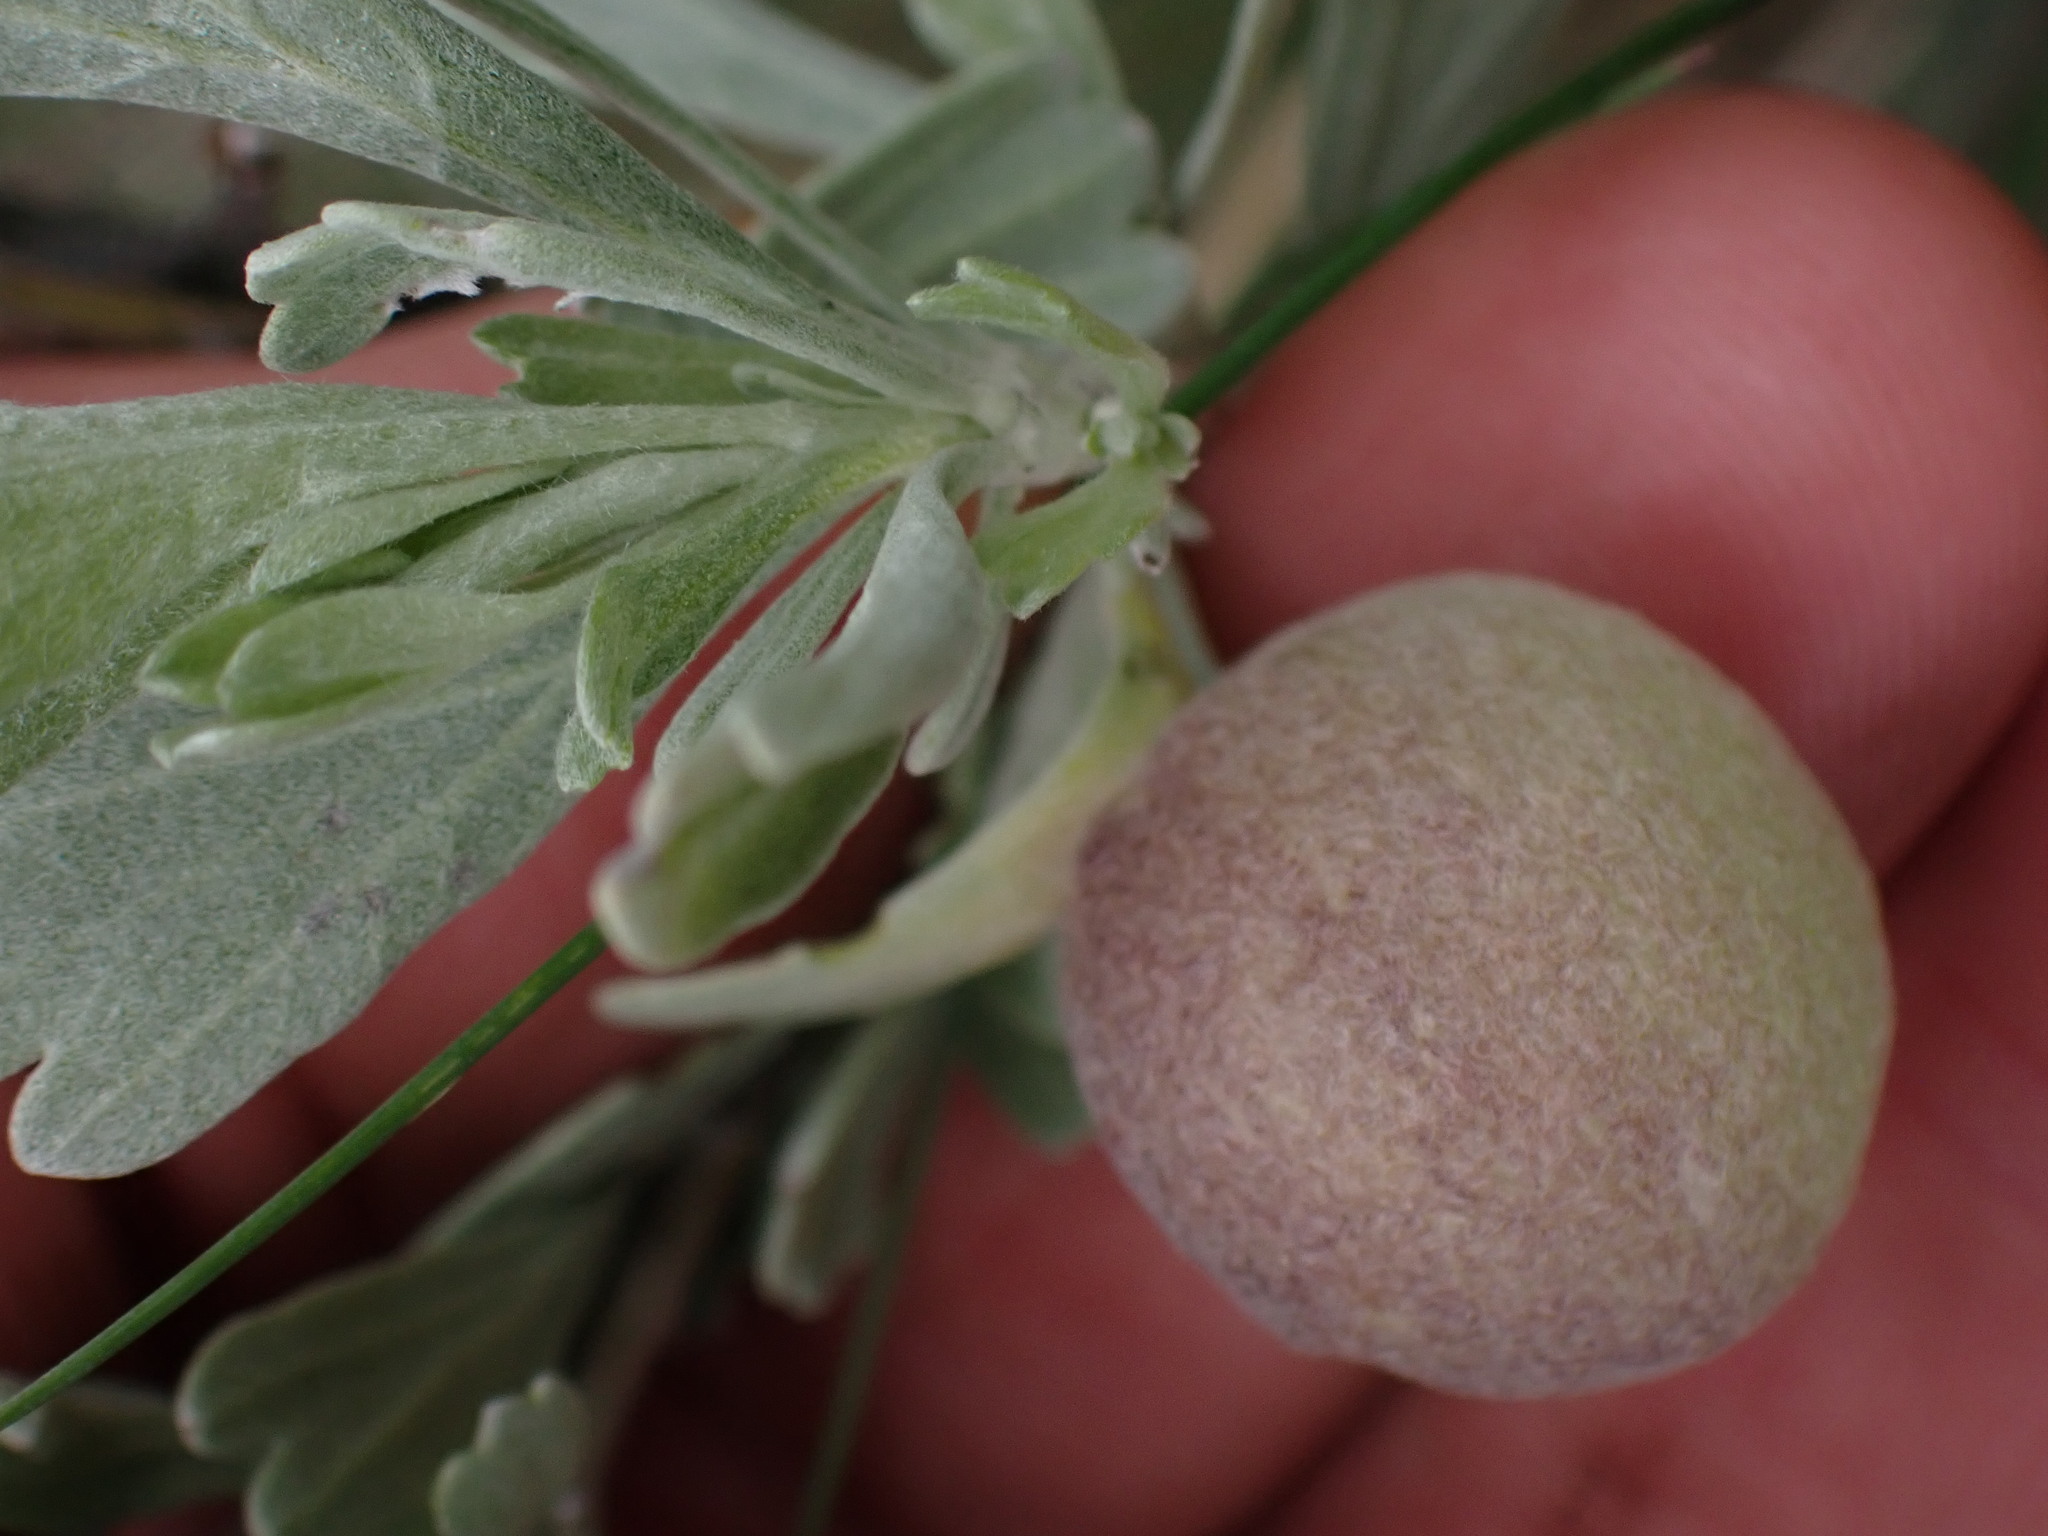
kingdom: Animalia
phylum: Arthropoda
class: Insecta
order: Diptera
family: Cecidomyiidae
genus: Rhopalomyia
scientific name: Rhopalomyia pomum
